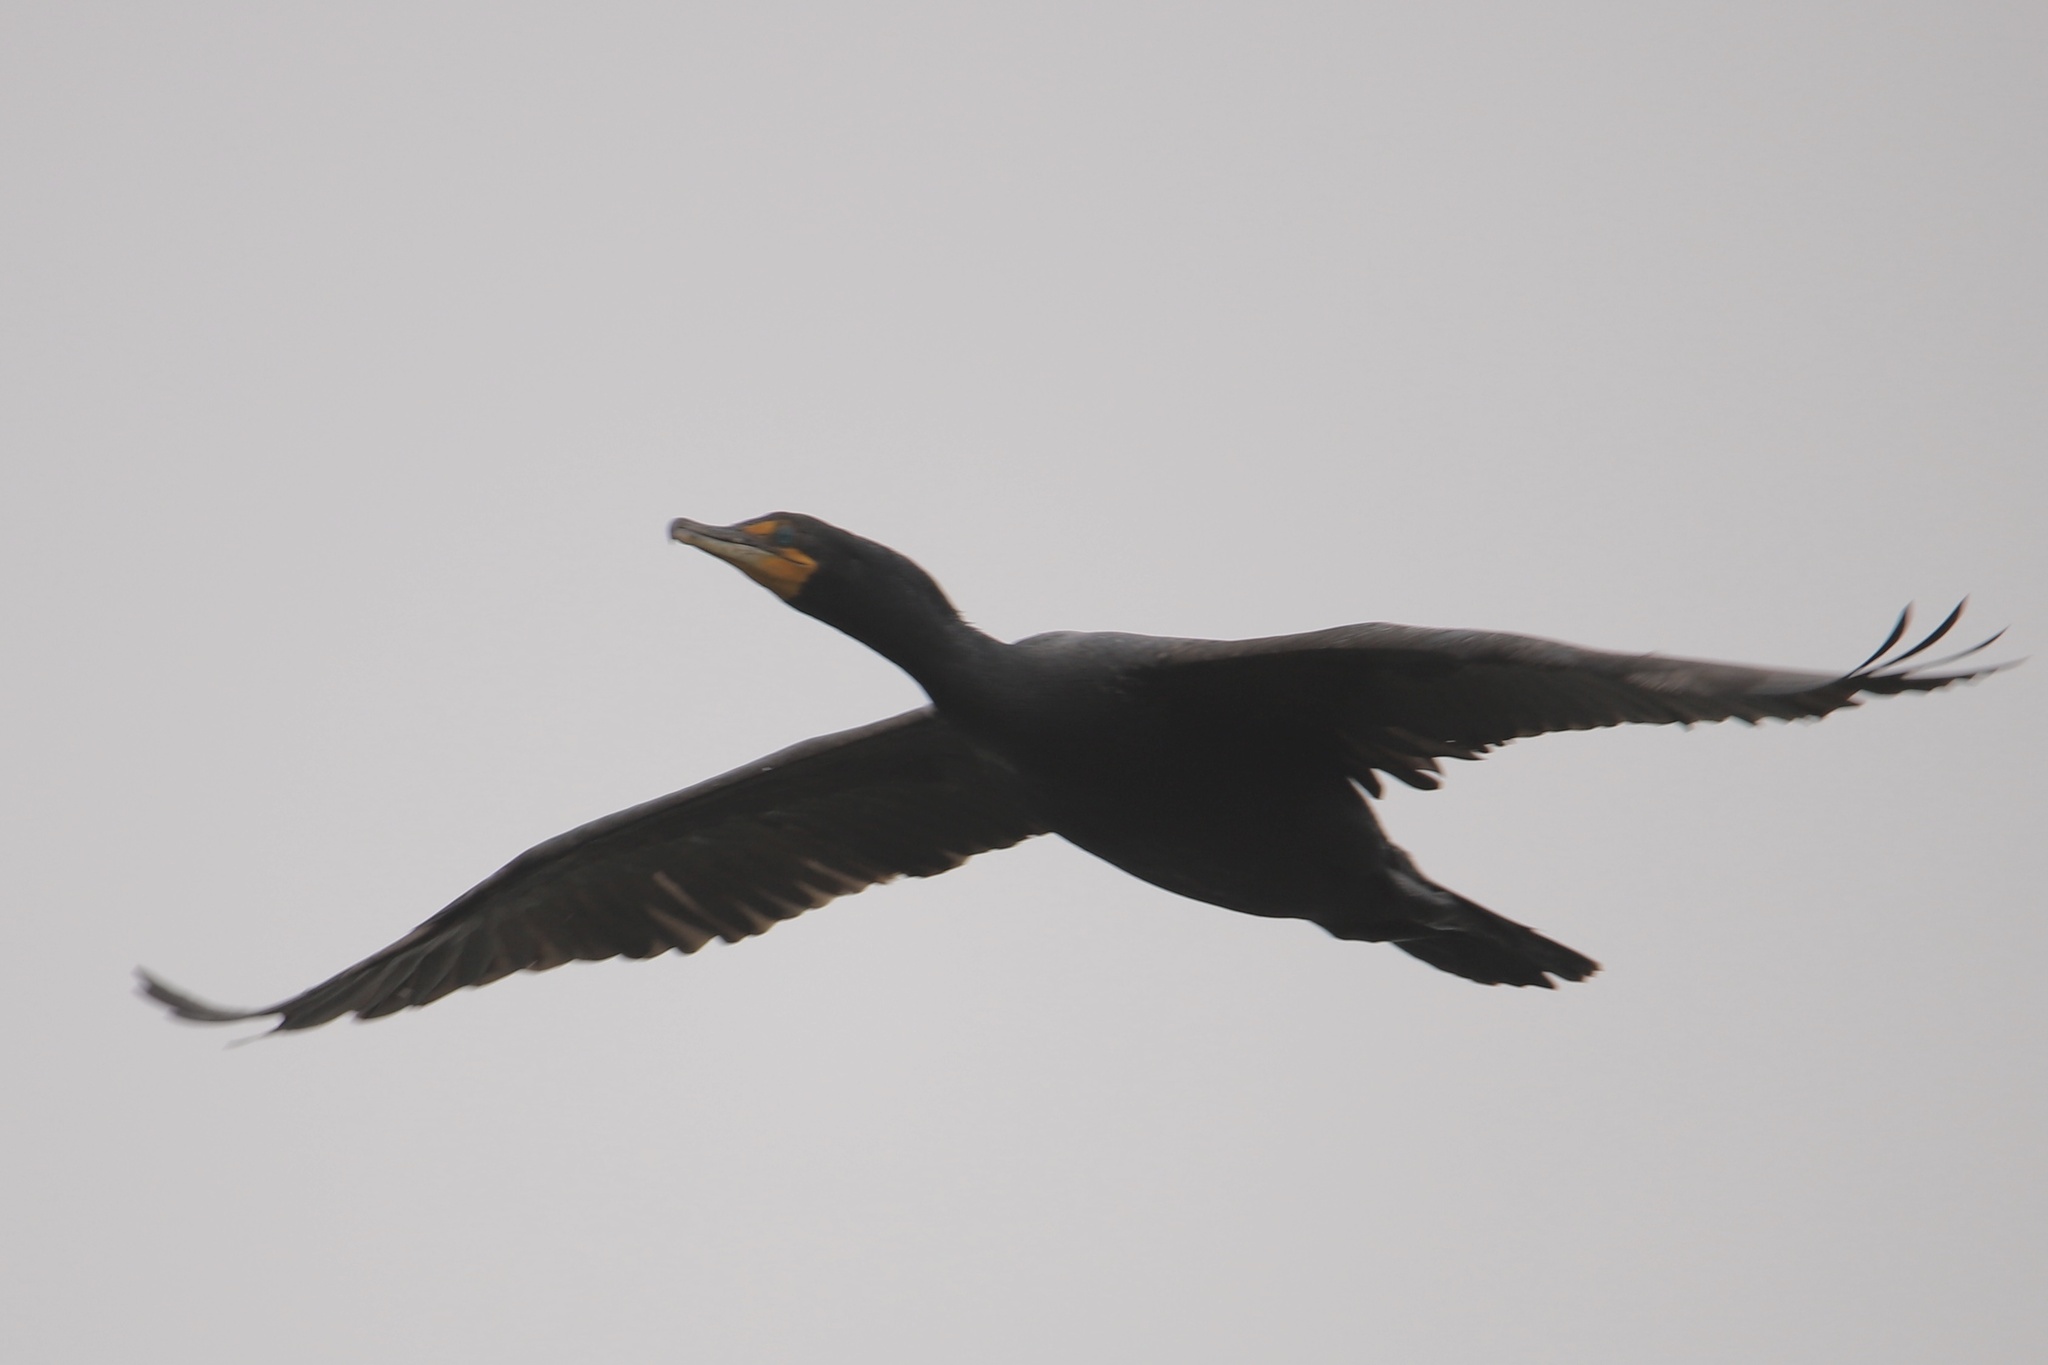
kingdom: Animalia
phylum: Chordata
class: Aves
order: Suliformes
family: Phalacrocoracidae
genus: Phalacrocorax
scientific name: Phalacrocorax auritus
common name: Double-crested cormorant
